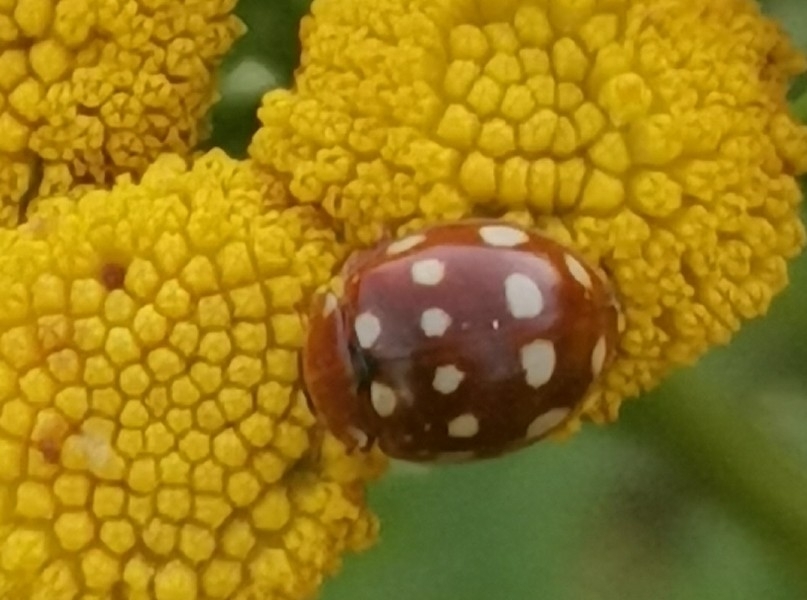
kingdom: Animalia
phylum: Arthropoda
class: Insecta
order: Coleoptera
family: Coccinellidae
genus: Calvia
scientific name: Calvia quatuordecimguttata
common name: Cream-spot ladybird
